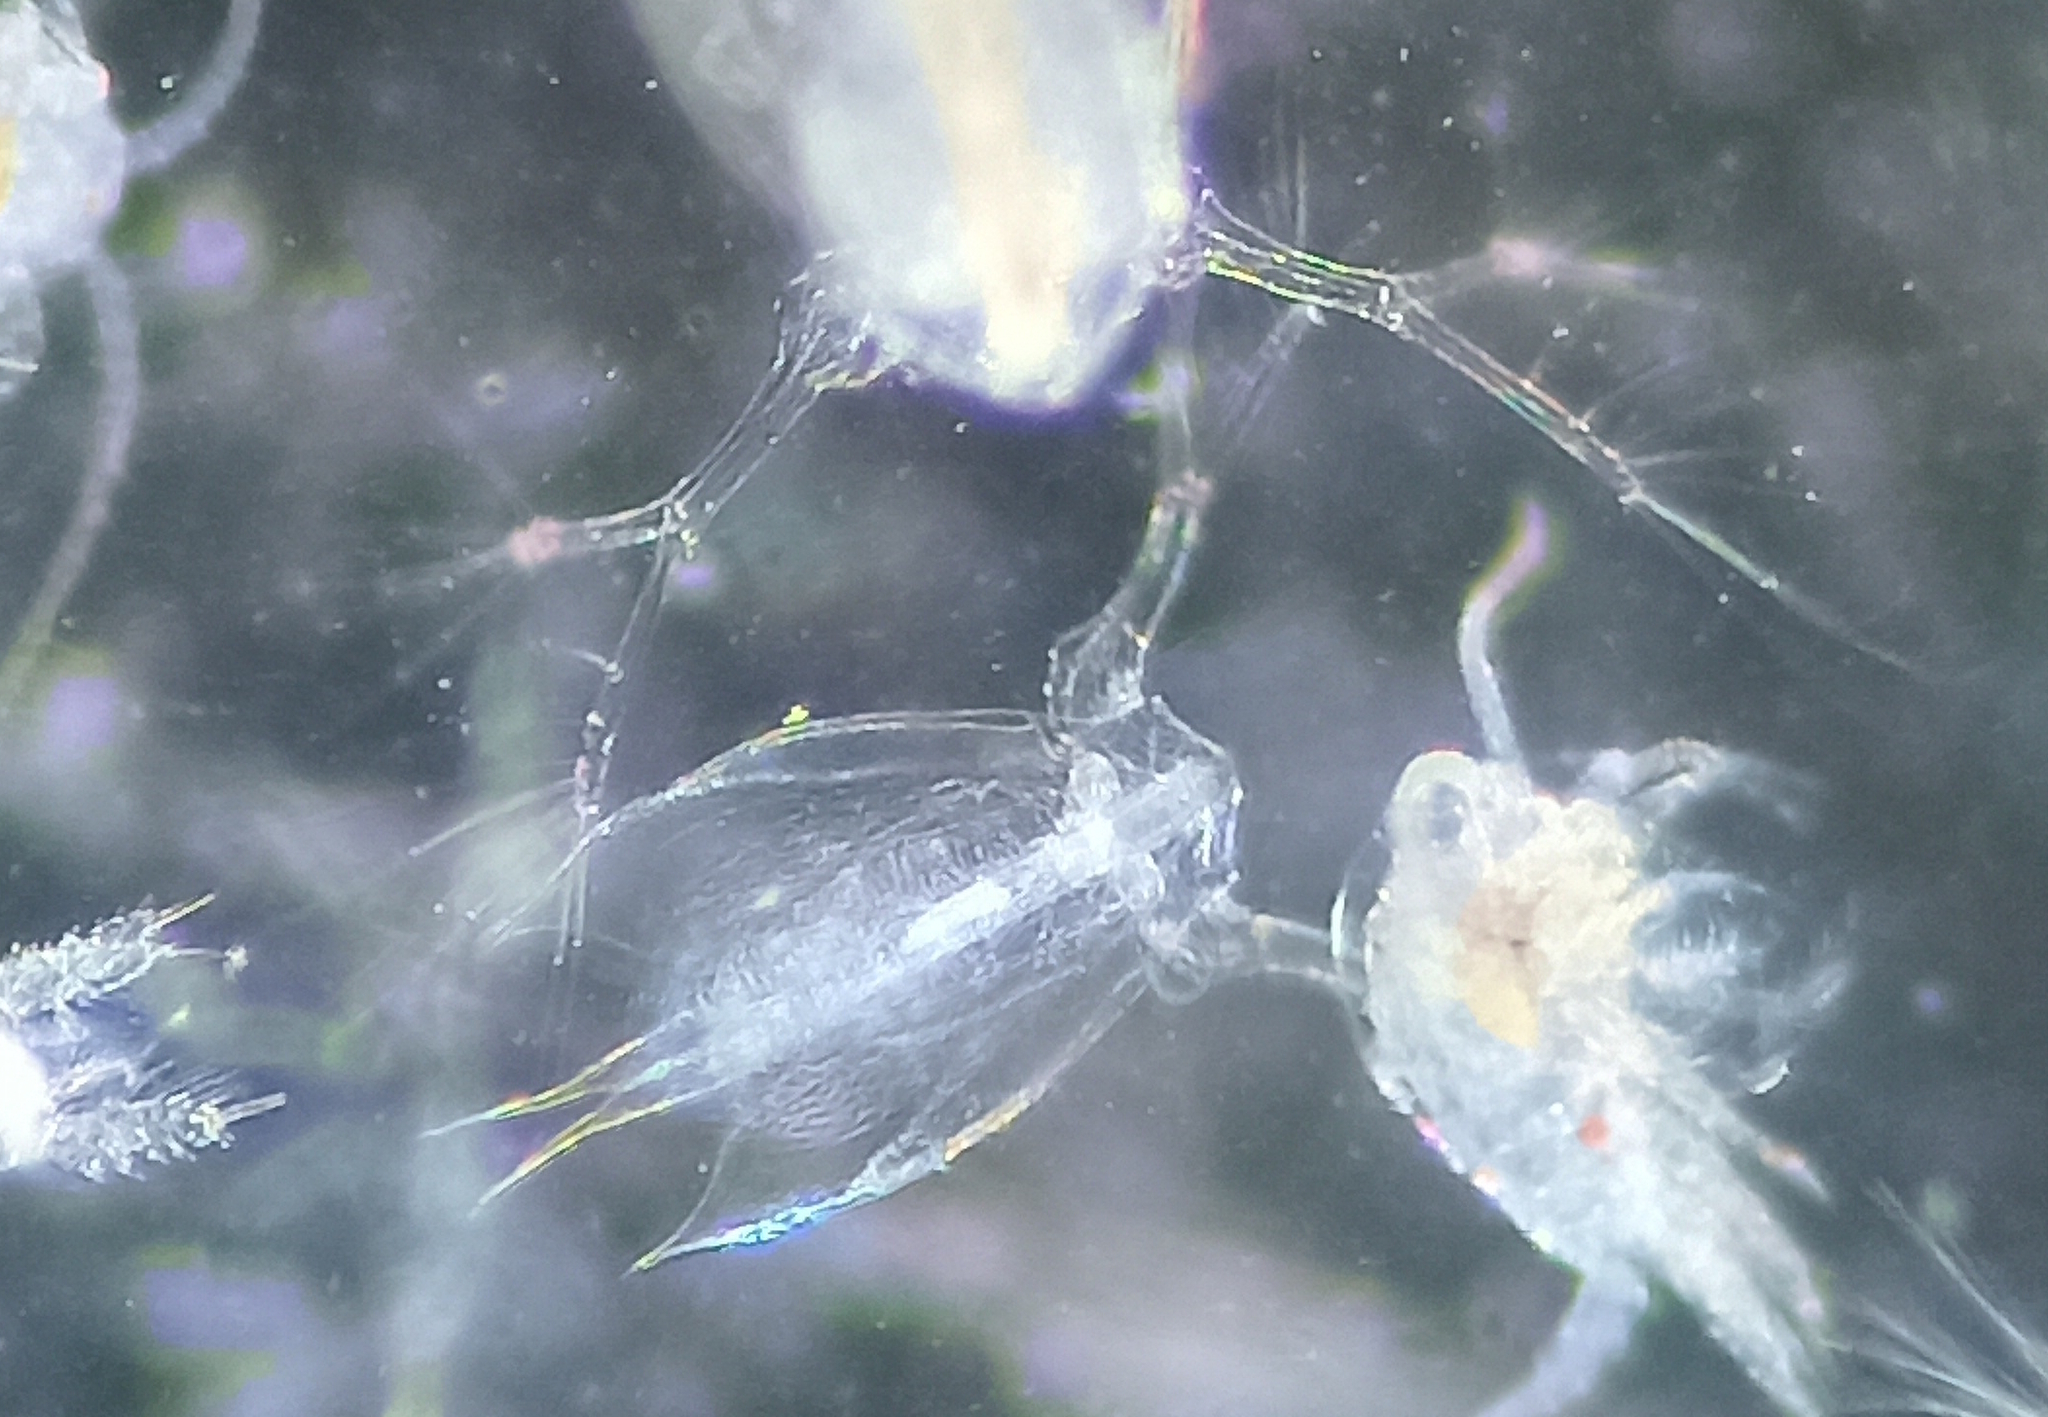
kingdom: Animalia
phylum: Arthropoda
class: Branchiopoda
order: Diplostraca
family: Sididae
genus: Penilia
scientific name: Penilia avirostris
